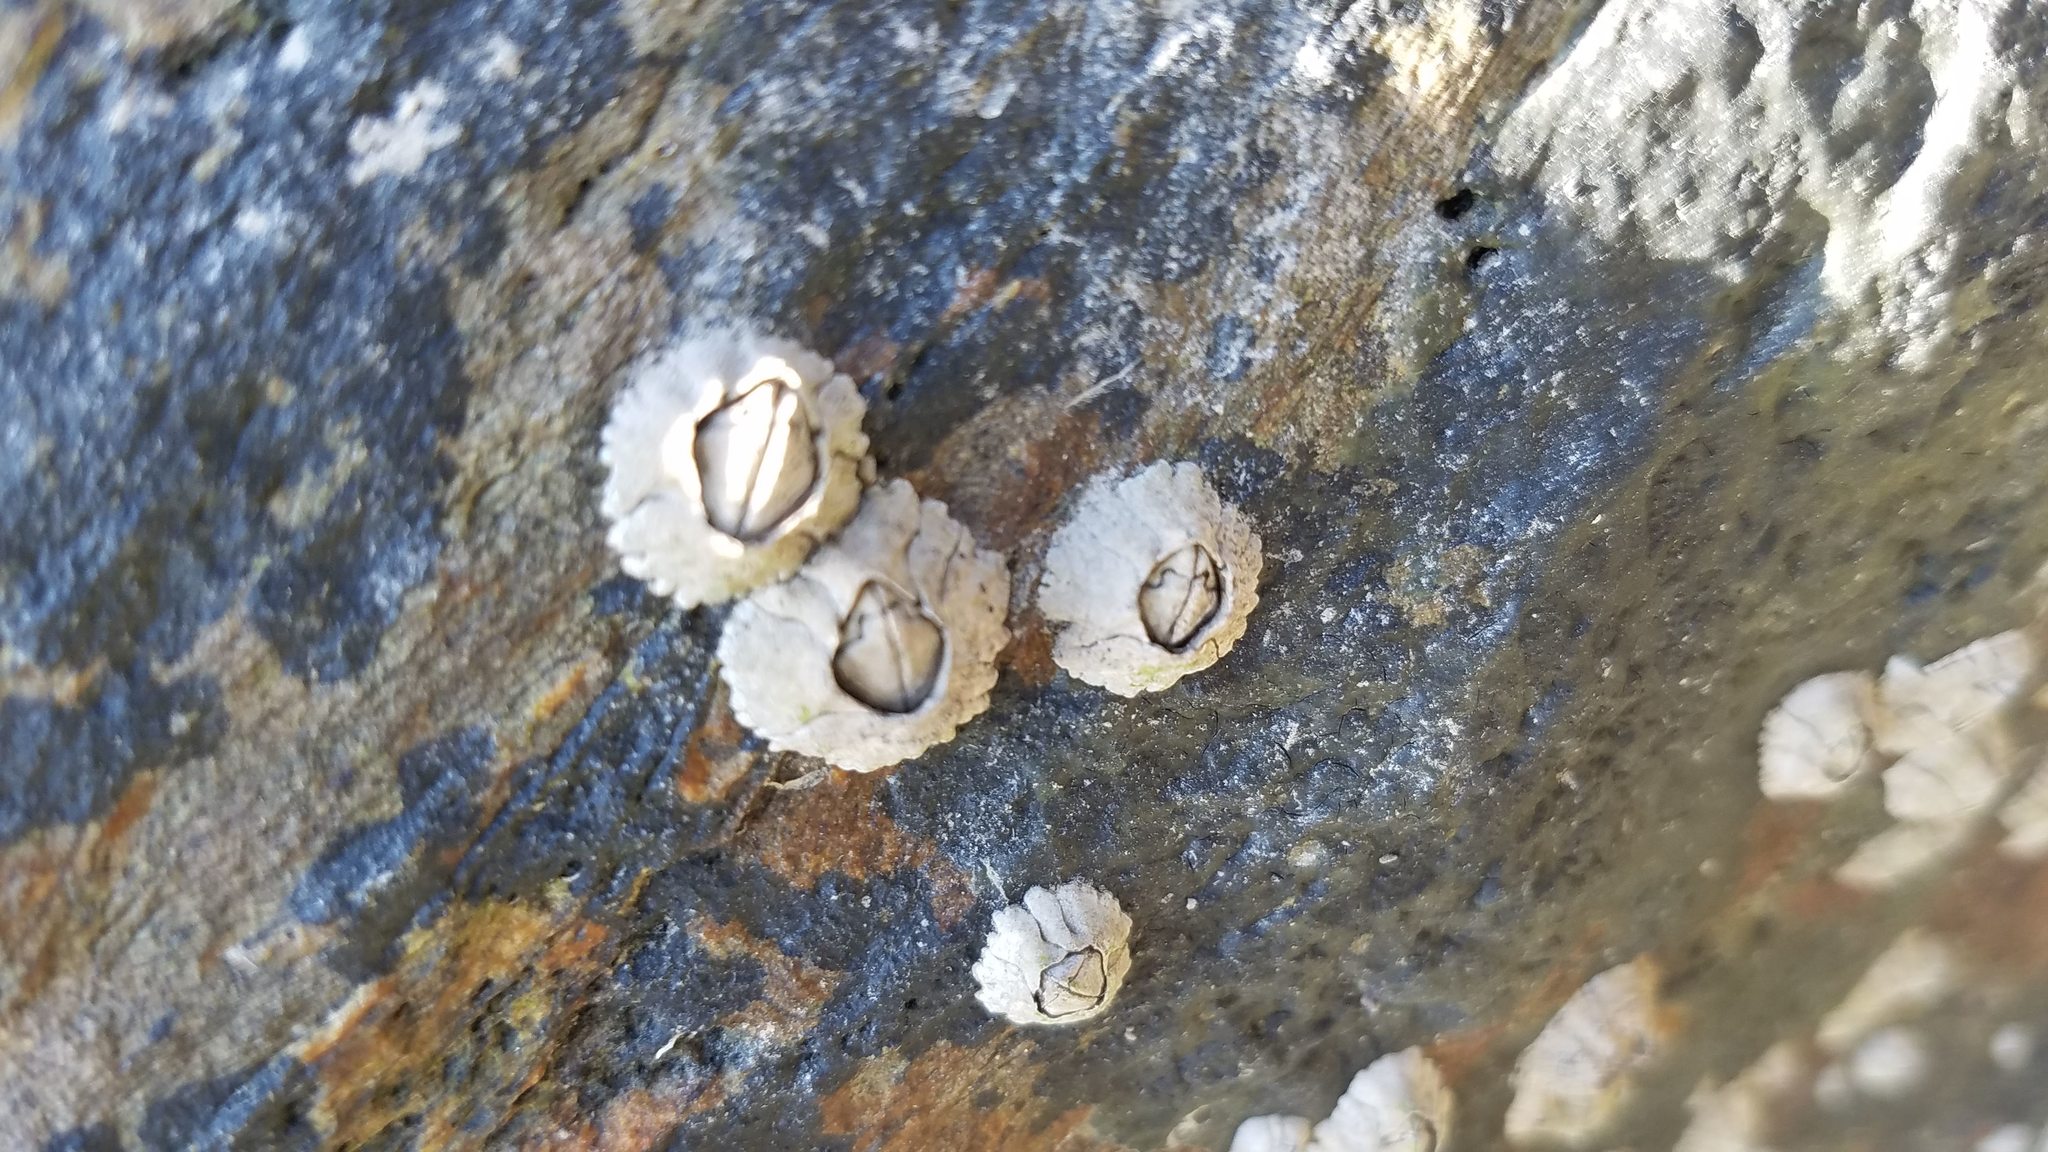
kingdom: Animalia
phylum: Arthropoda
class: Maxillopoda
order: Sessilia
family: Archaeobalanidae
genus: Semibalanus
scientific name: Semibalanus balanoides
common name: Acorn barnacle
